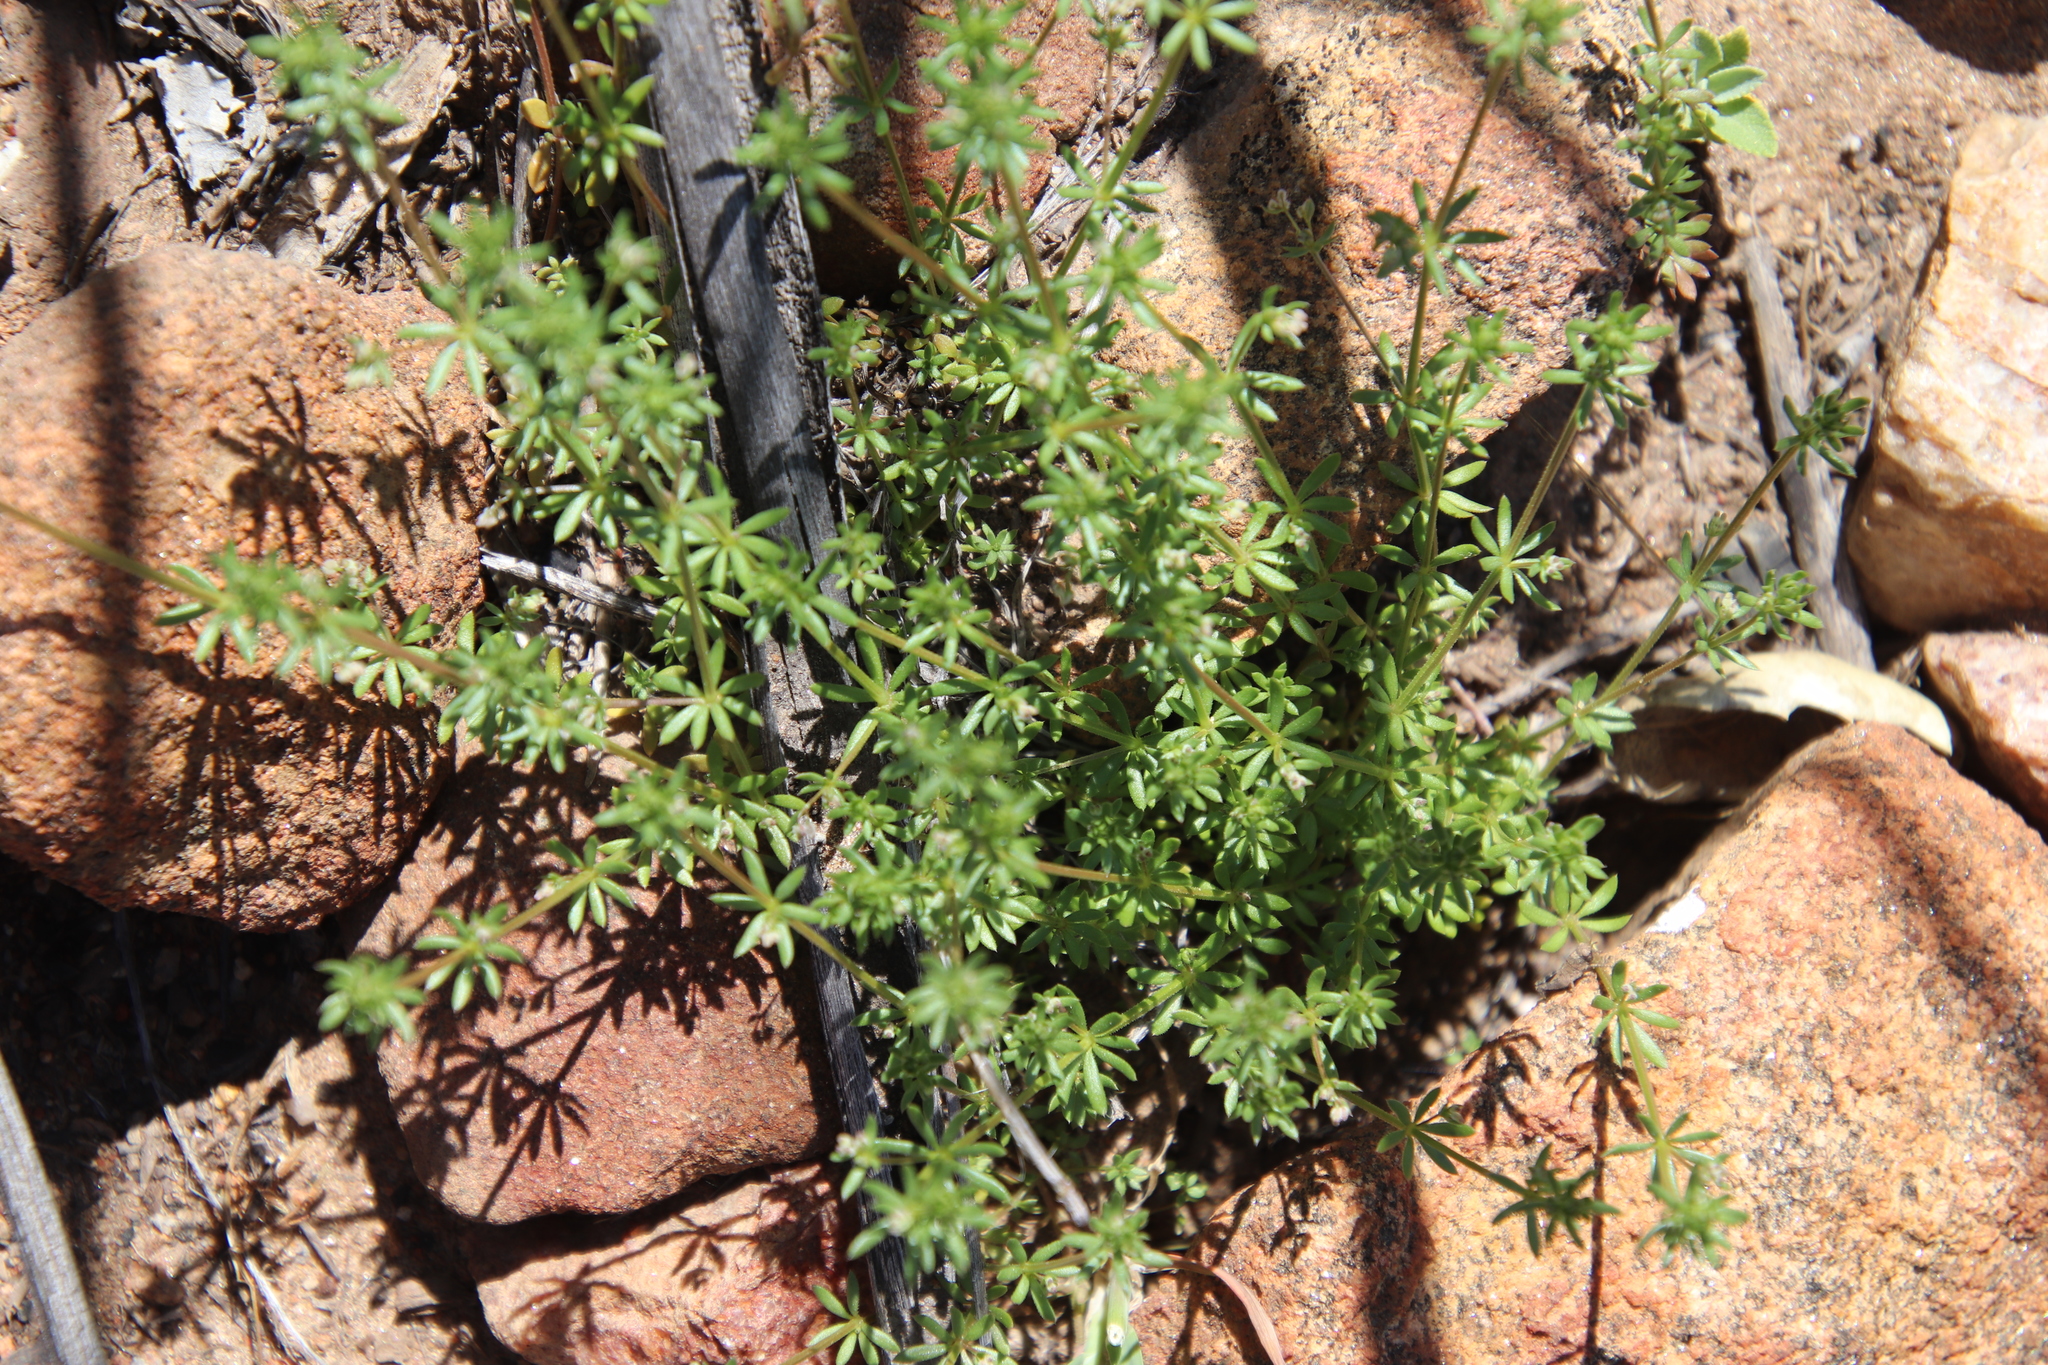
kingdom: Plantae
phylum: Tracheophyta
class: Magnoliopsida
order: Gentianales
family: Rubiaceae
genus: Galium
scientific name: Galium parisiense
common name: Wall bedstraw
